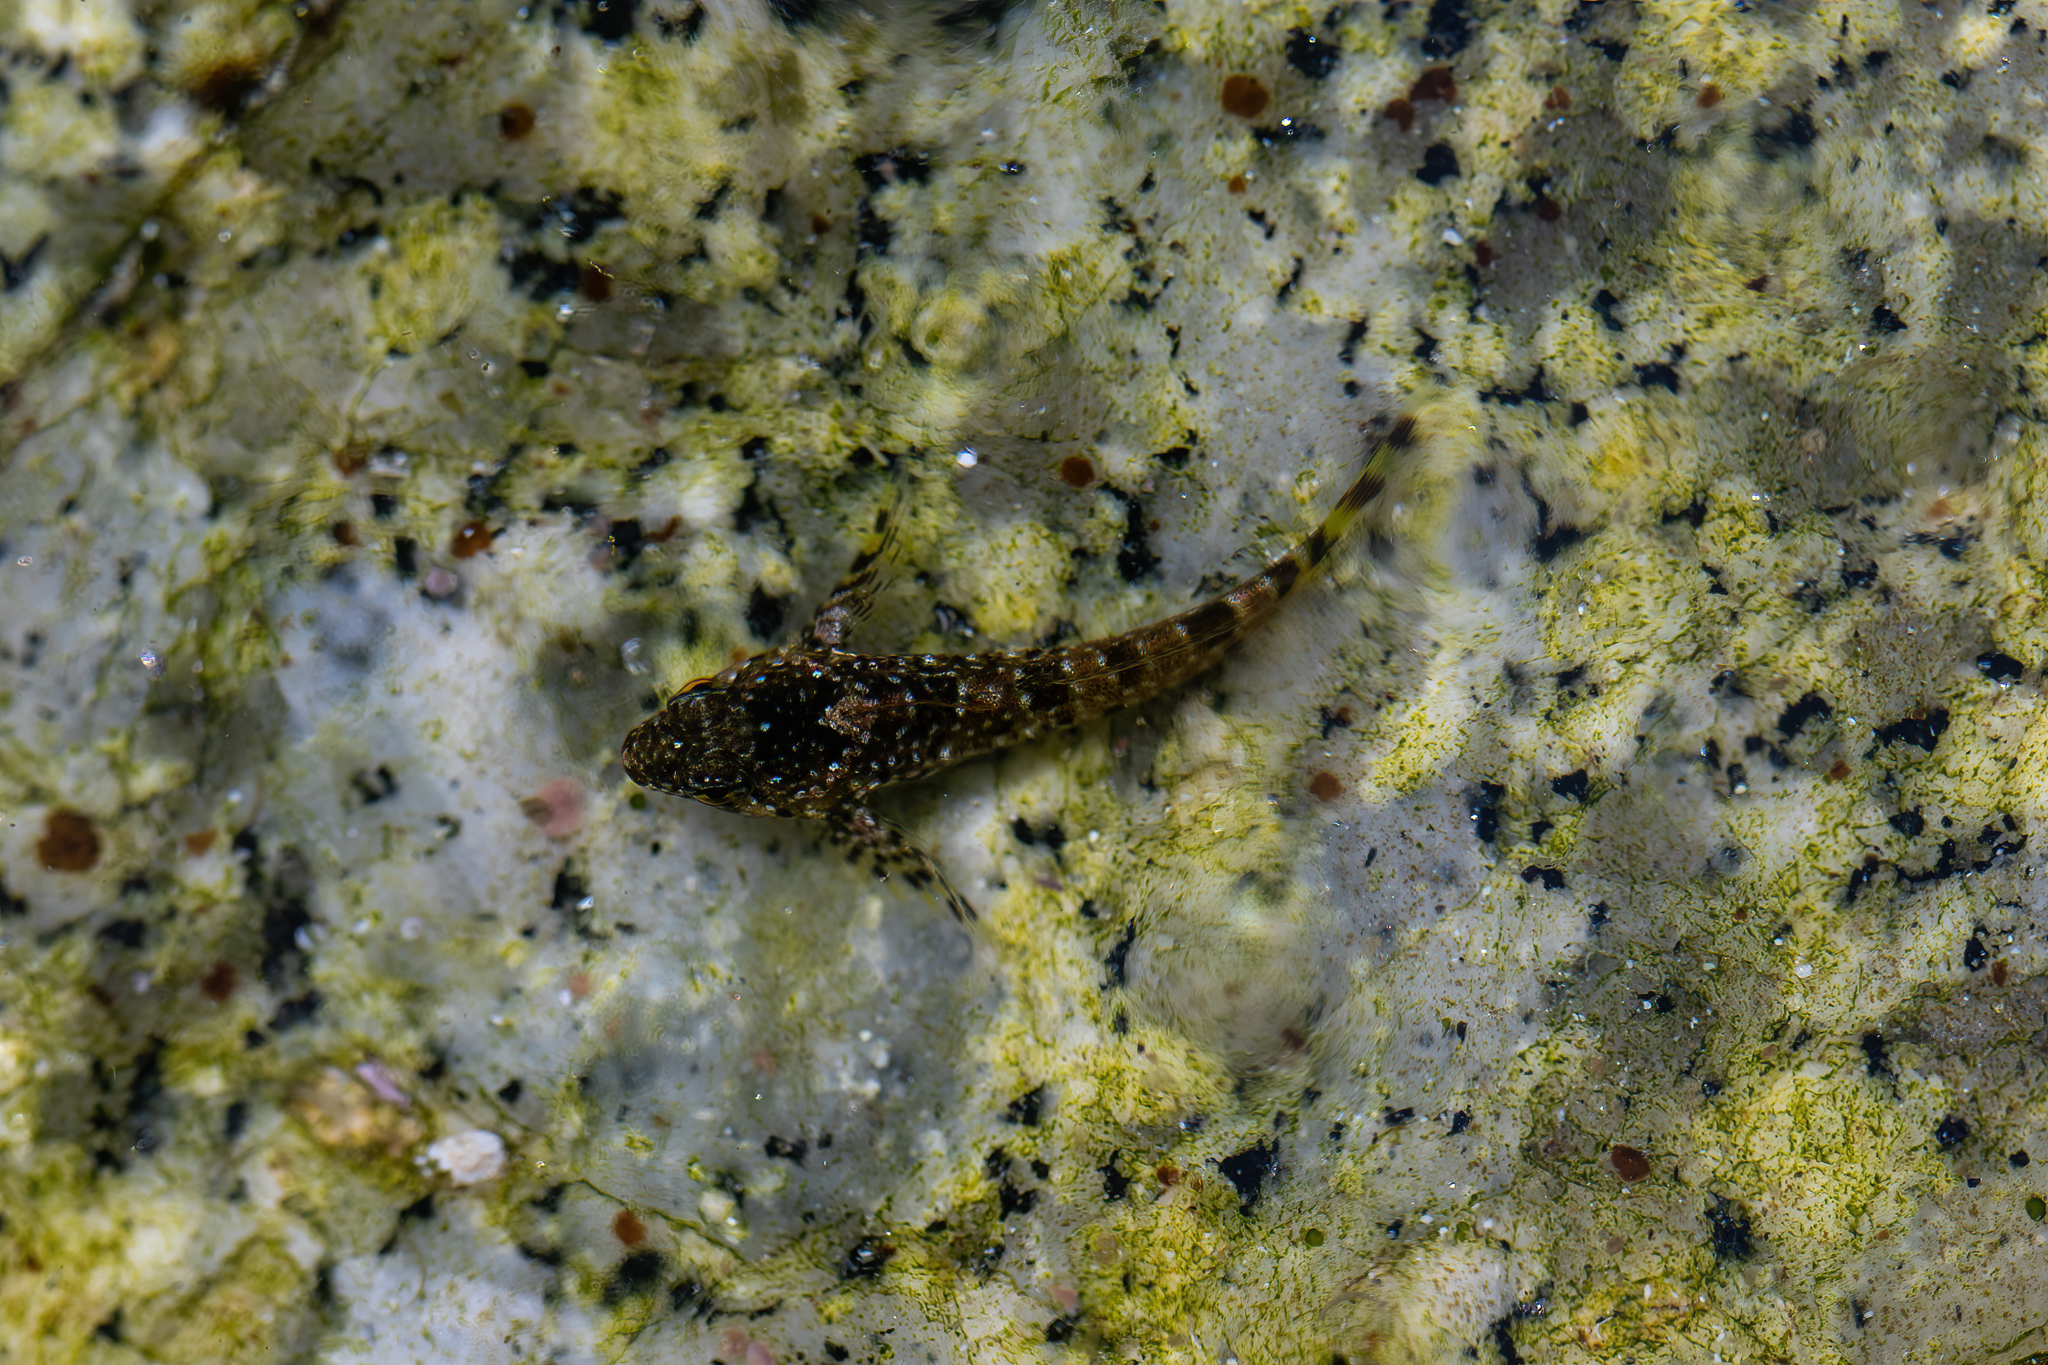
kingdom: Animalia
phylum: Chordata
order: Scorpaeniformes
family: Cottidae
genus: Clinocottus
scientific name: Clinocottus analis
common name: Woolly sculpin
